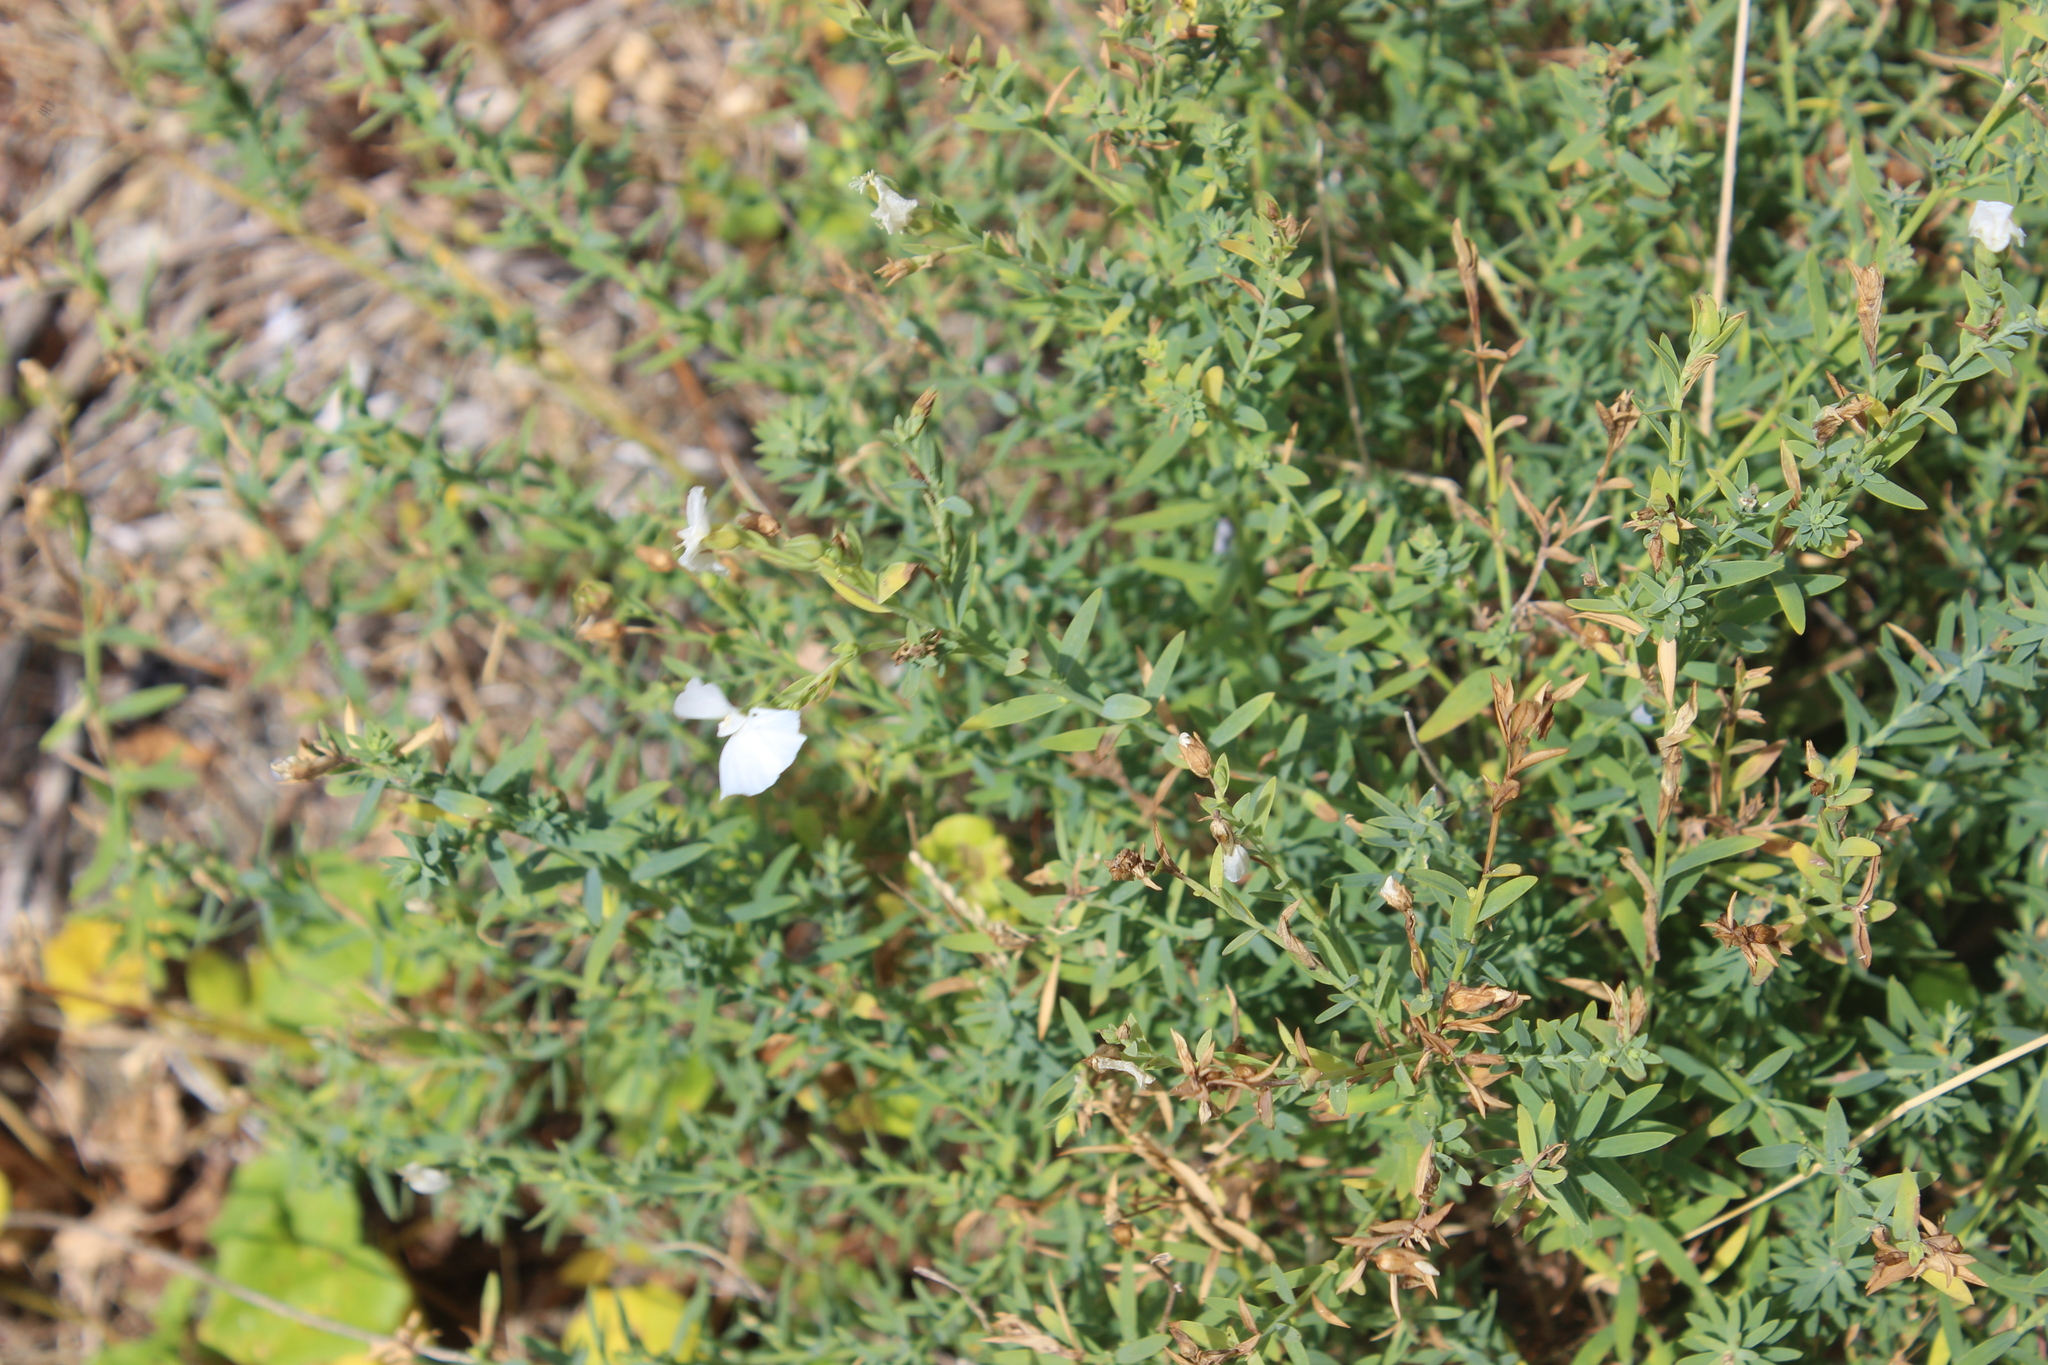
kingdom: Plantae
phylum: Tracheophyta
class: Magnoliopsida
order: Malpighiales
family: Linaceae
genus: Linum
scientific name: Linum monogynum
